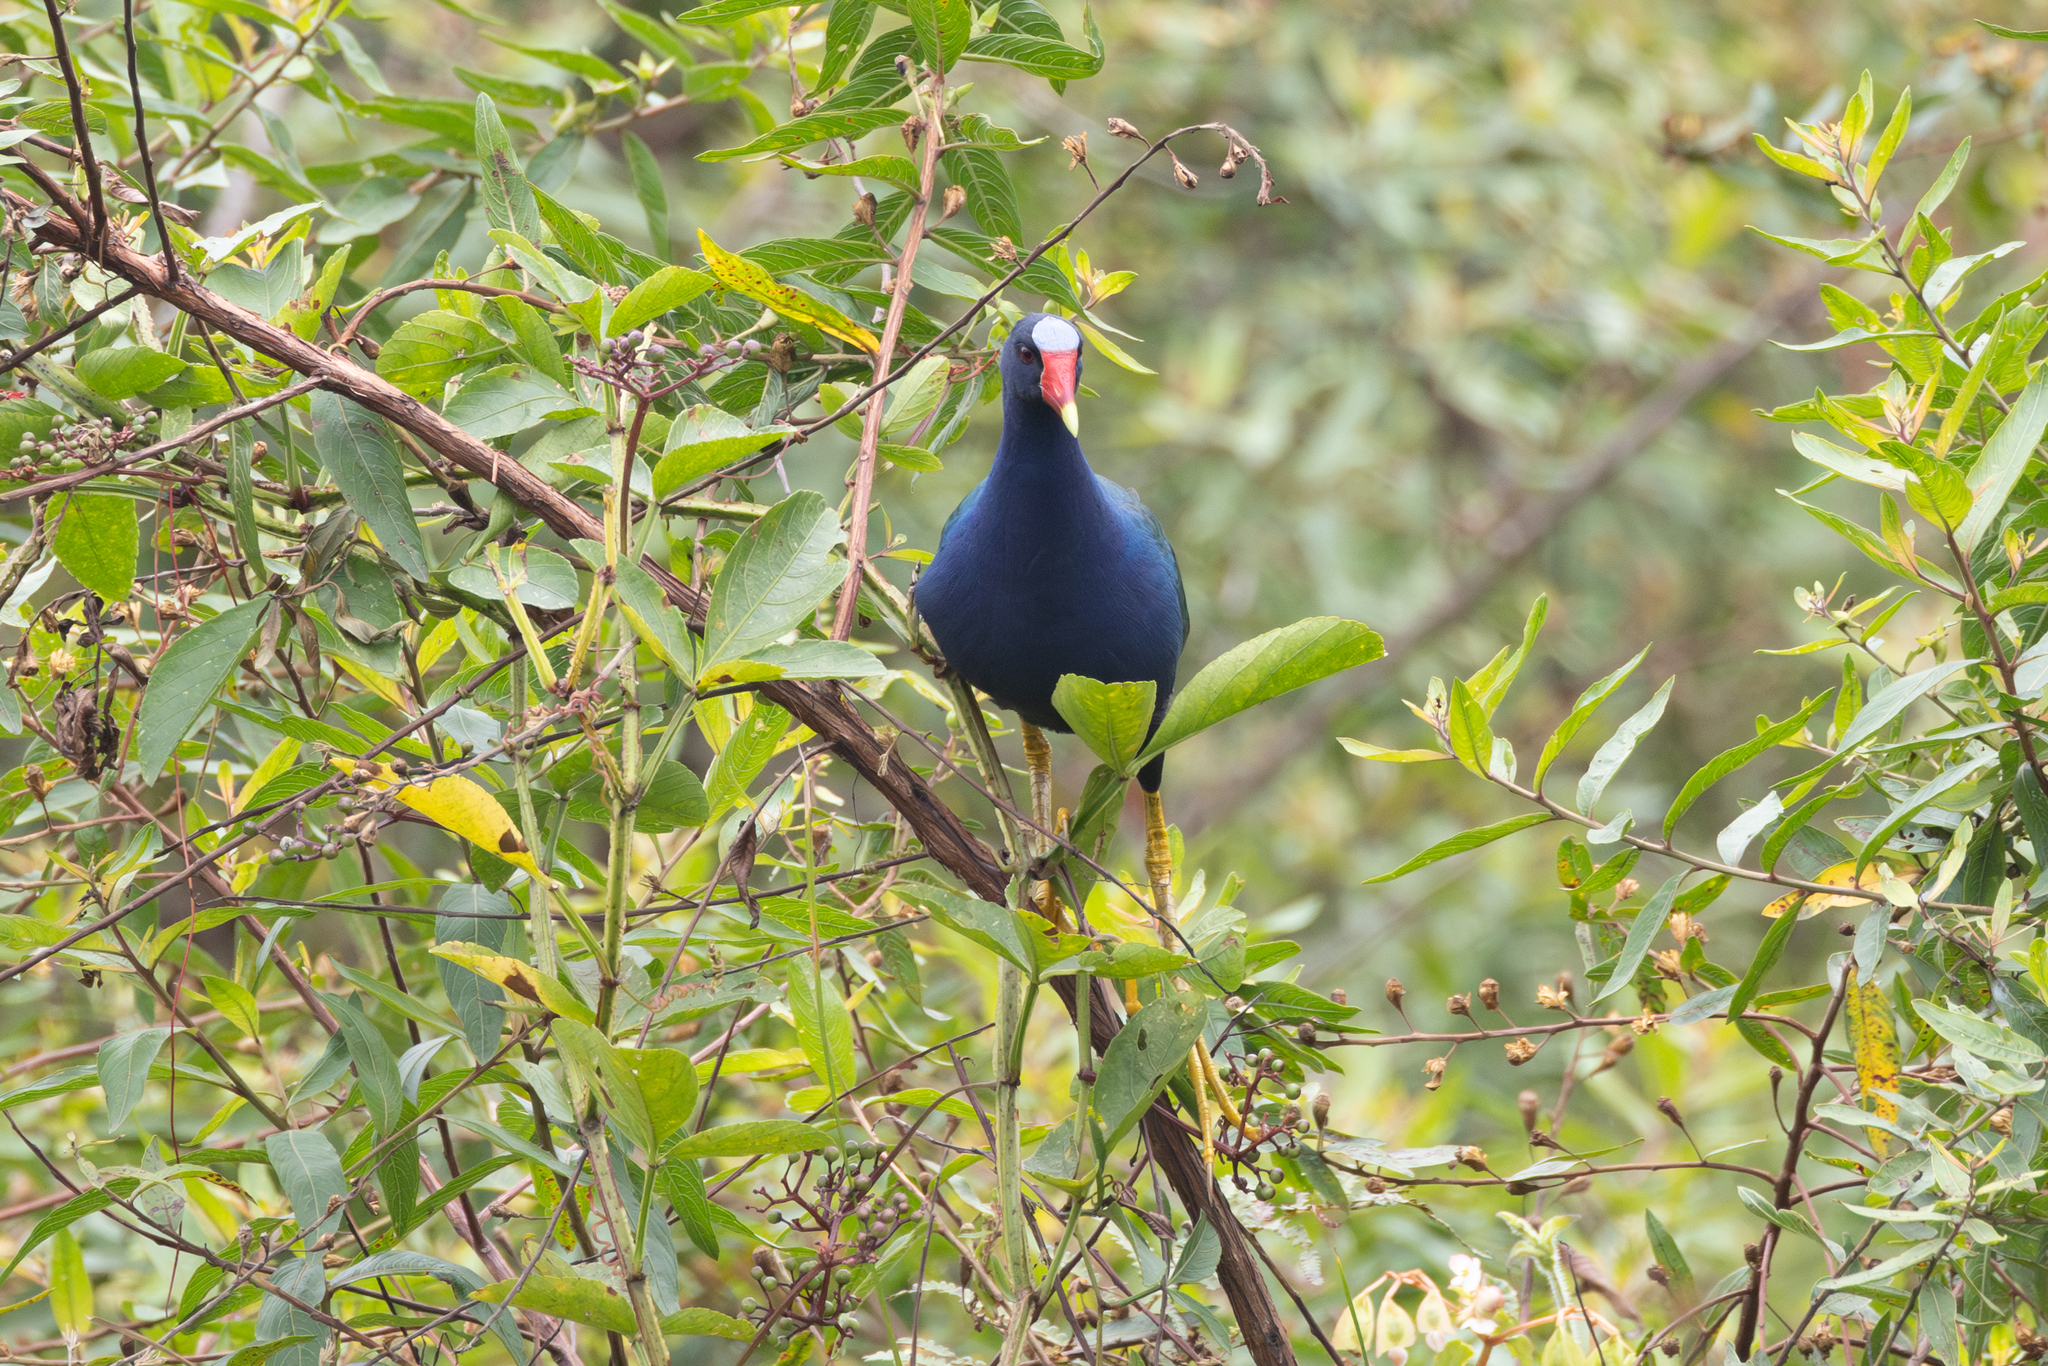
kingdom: Animalia
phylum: Chordata
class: Aves
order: Gruiformes
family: Rallidae
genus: Porphyrio
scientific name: Porphyrio martinica
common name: Purple gallinule
